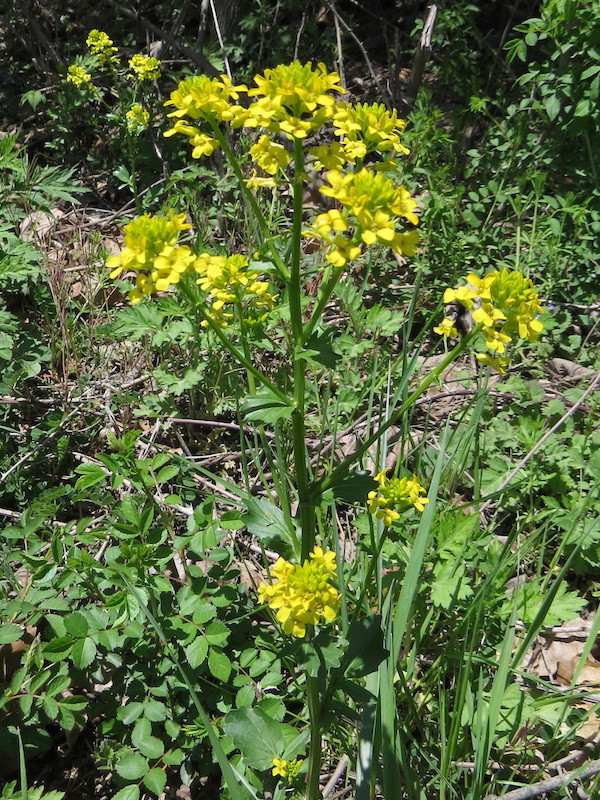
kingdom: Plantae
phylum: Tracheophyta
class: Magnoliopsida
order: Brassicales
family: Brassicaceae
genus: Barbarea
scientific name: Barbarea vulgaris
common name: Cressy-greens
